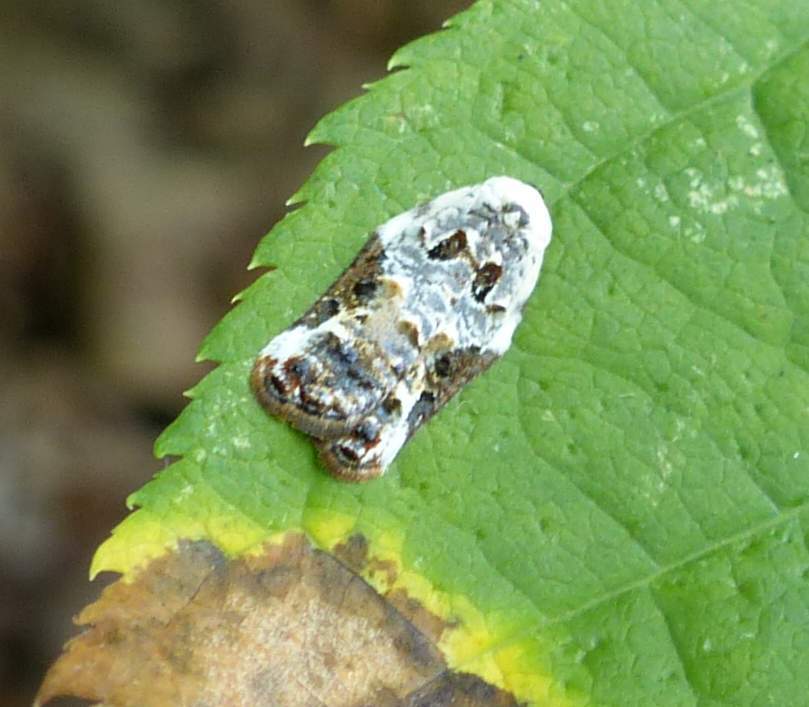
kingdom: Animalia
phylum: Arthropoda
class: Insecta
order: Lepidoptera
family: Tortricidae
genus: Acleris
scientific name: Acleris nivisellana
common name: Snowy-shouldered acleris moth
